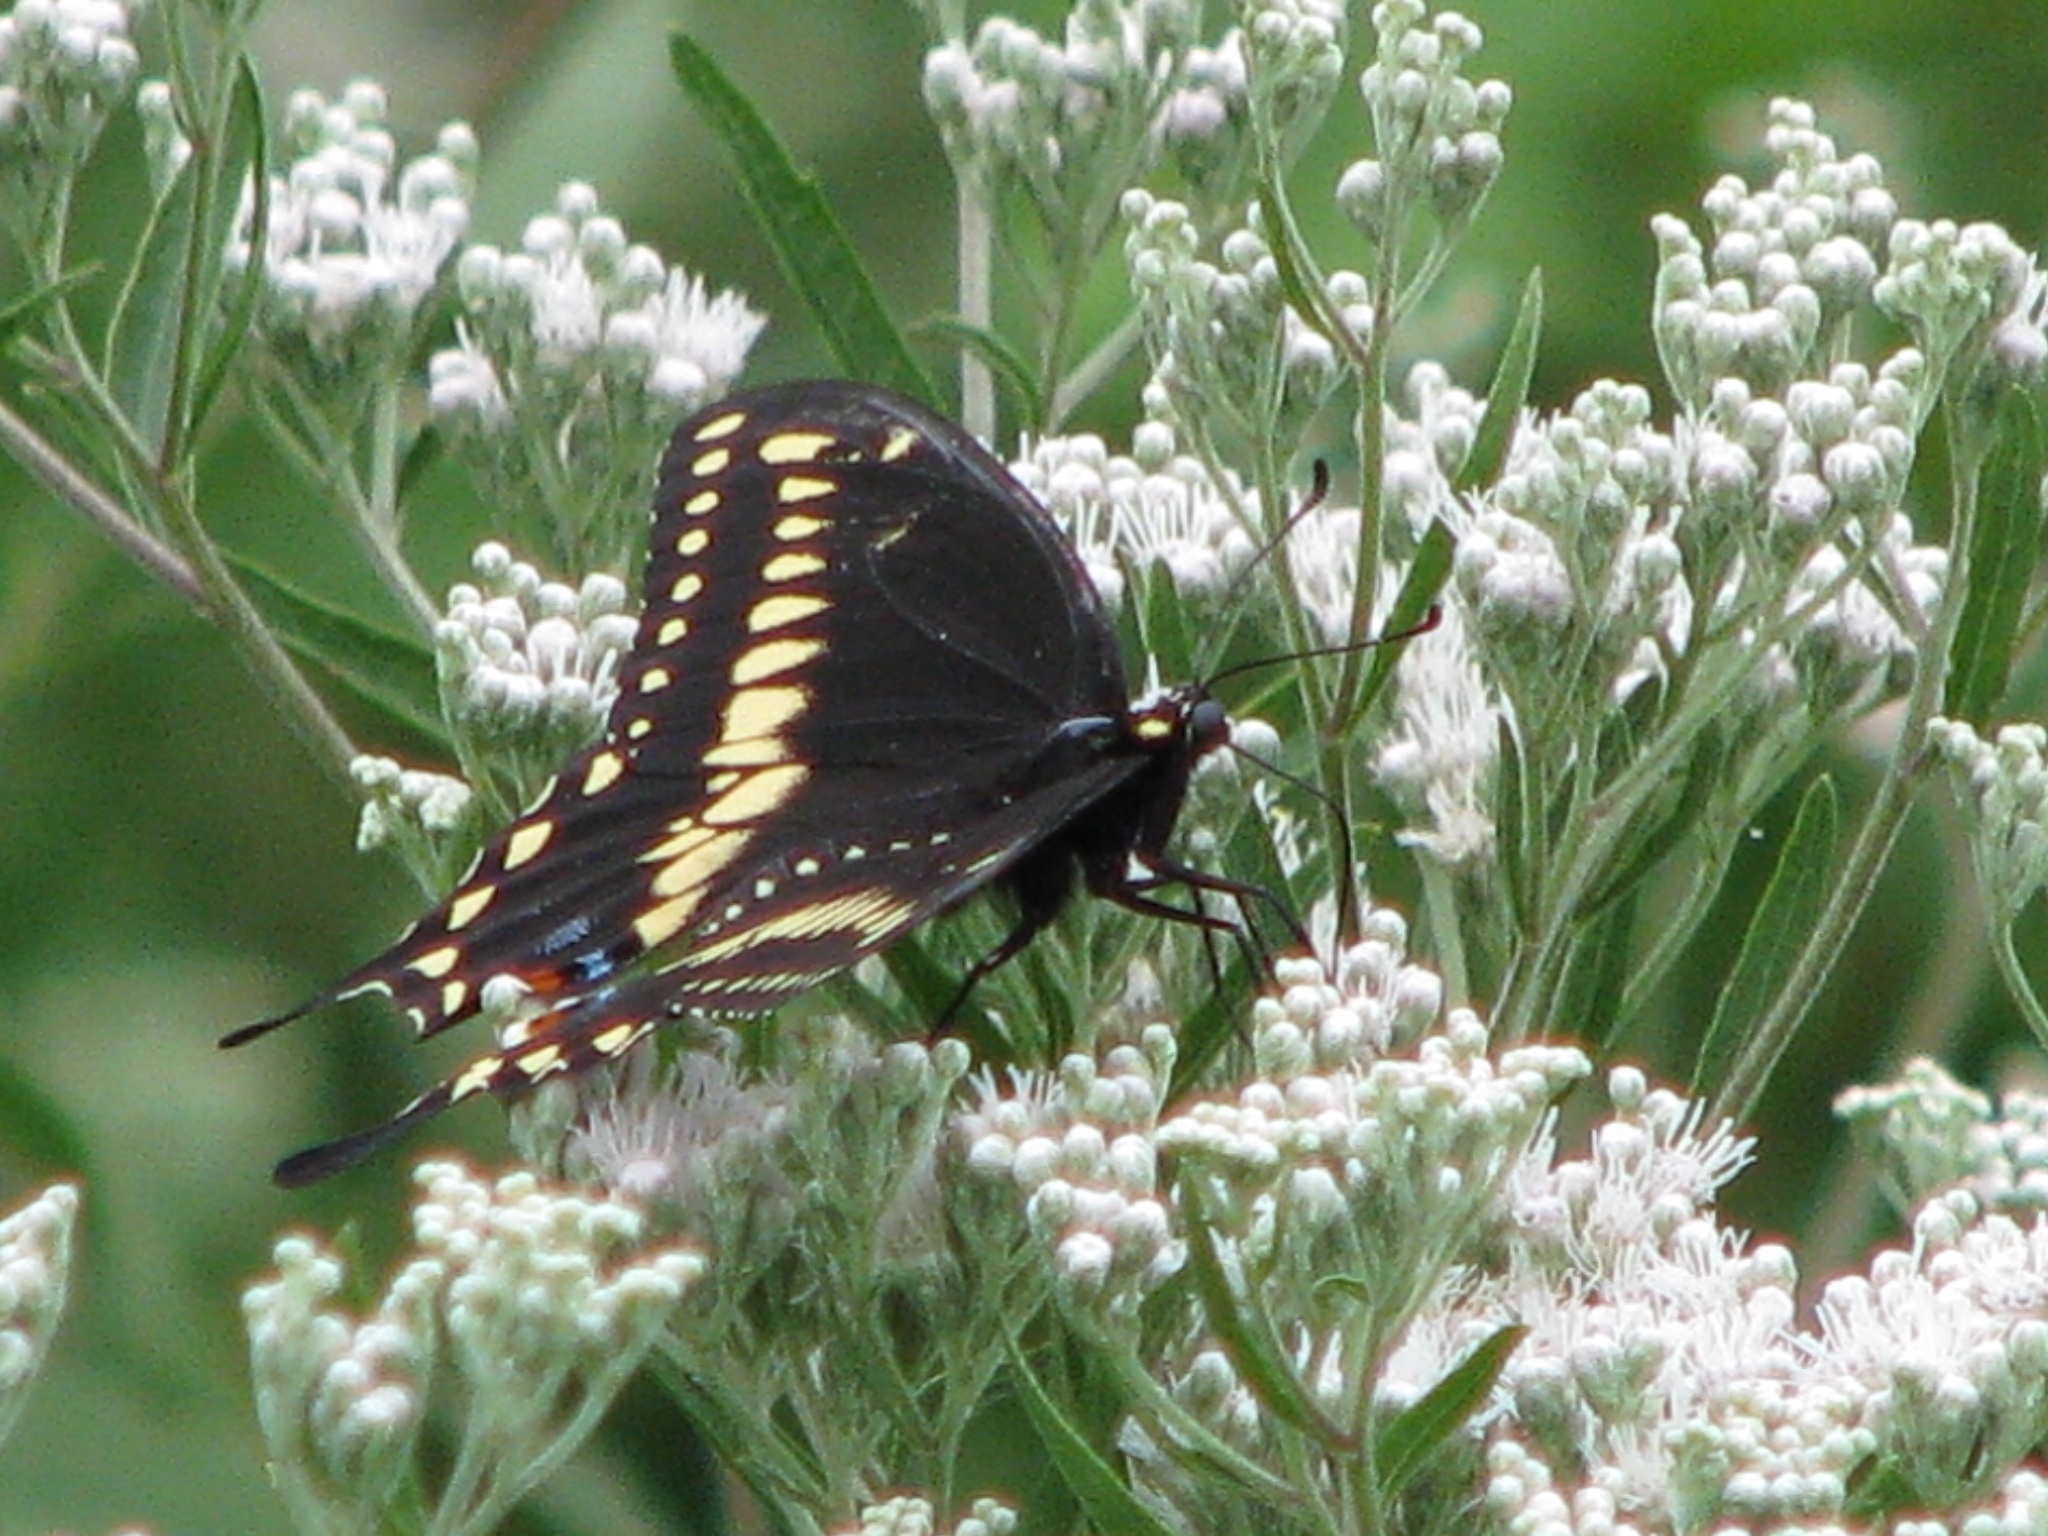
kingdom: Animalia
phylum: Arthropoda
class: Insecta
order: Lepidoptera
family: Papilionidae
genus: Papilio
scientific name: Papilio polyxenes
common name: Black swallowtail
